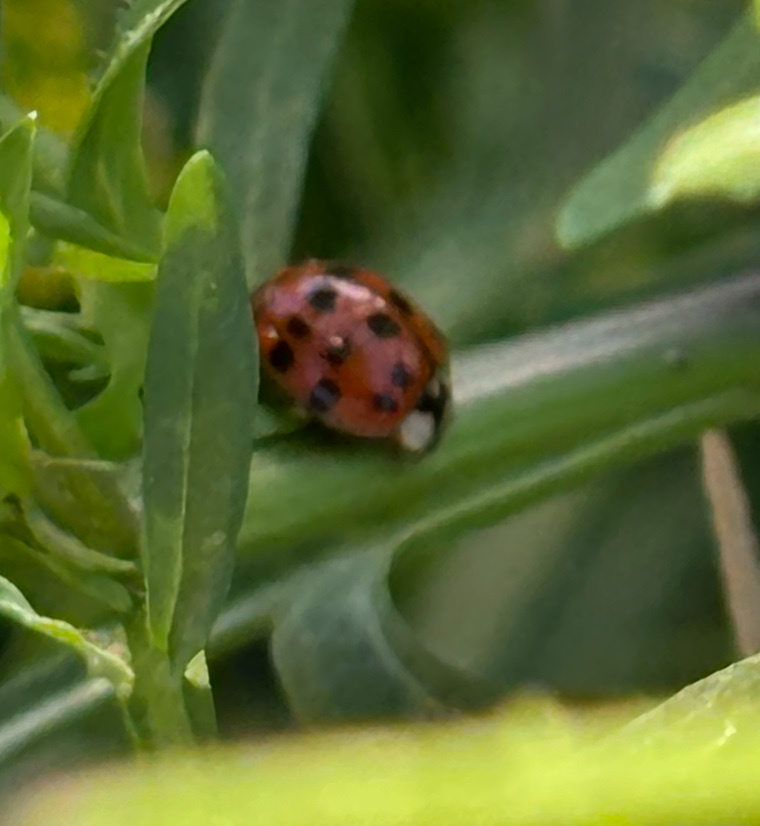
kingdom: Animalia
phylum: Arthropoda
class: Insecta
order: Coleoptera
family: Coccinellidae
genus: Harmonia
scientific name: Harmonia axyridis
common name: Harlequin ladybird
